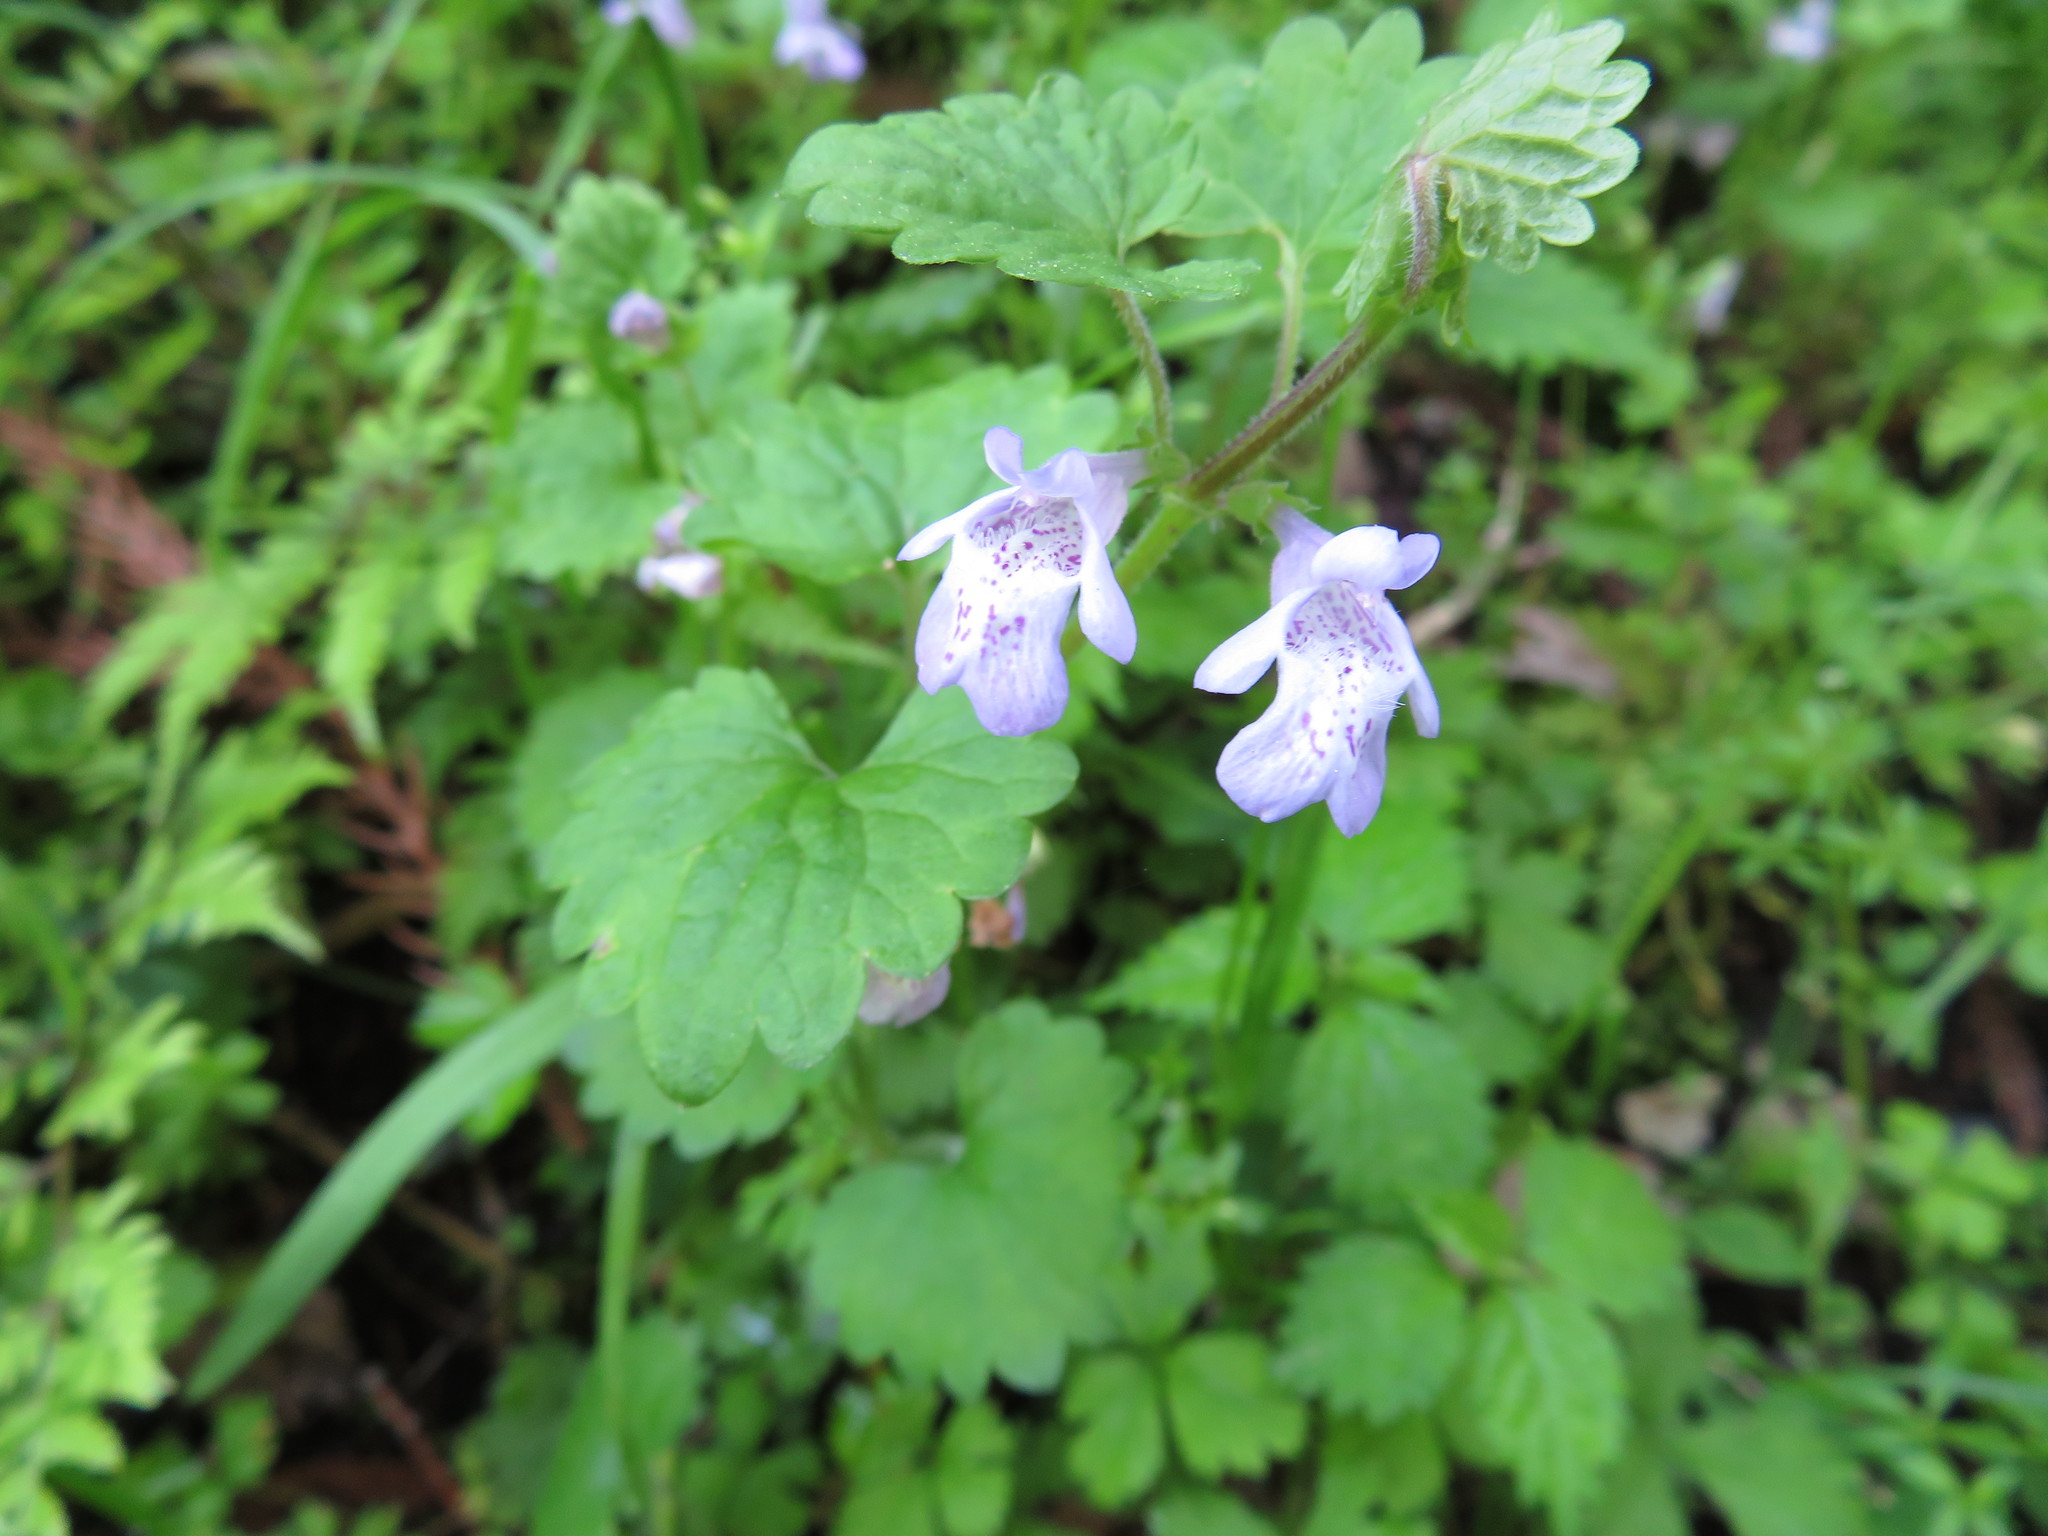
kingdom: Plantae
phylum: Tracheophyta
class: Magnoliopsida
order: Lamiales
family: Lamiaceae
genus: Glechoma
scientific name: Glechoma grandis
